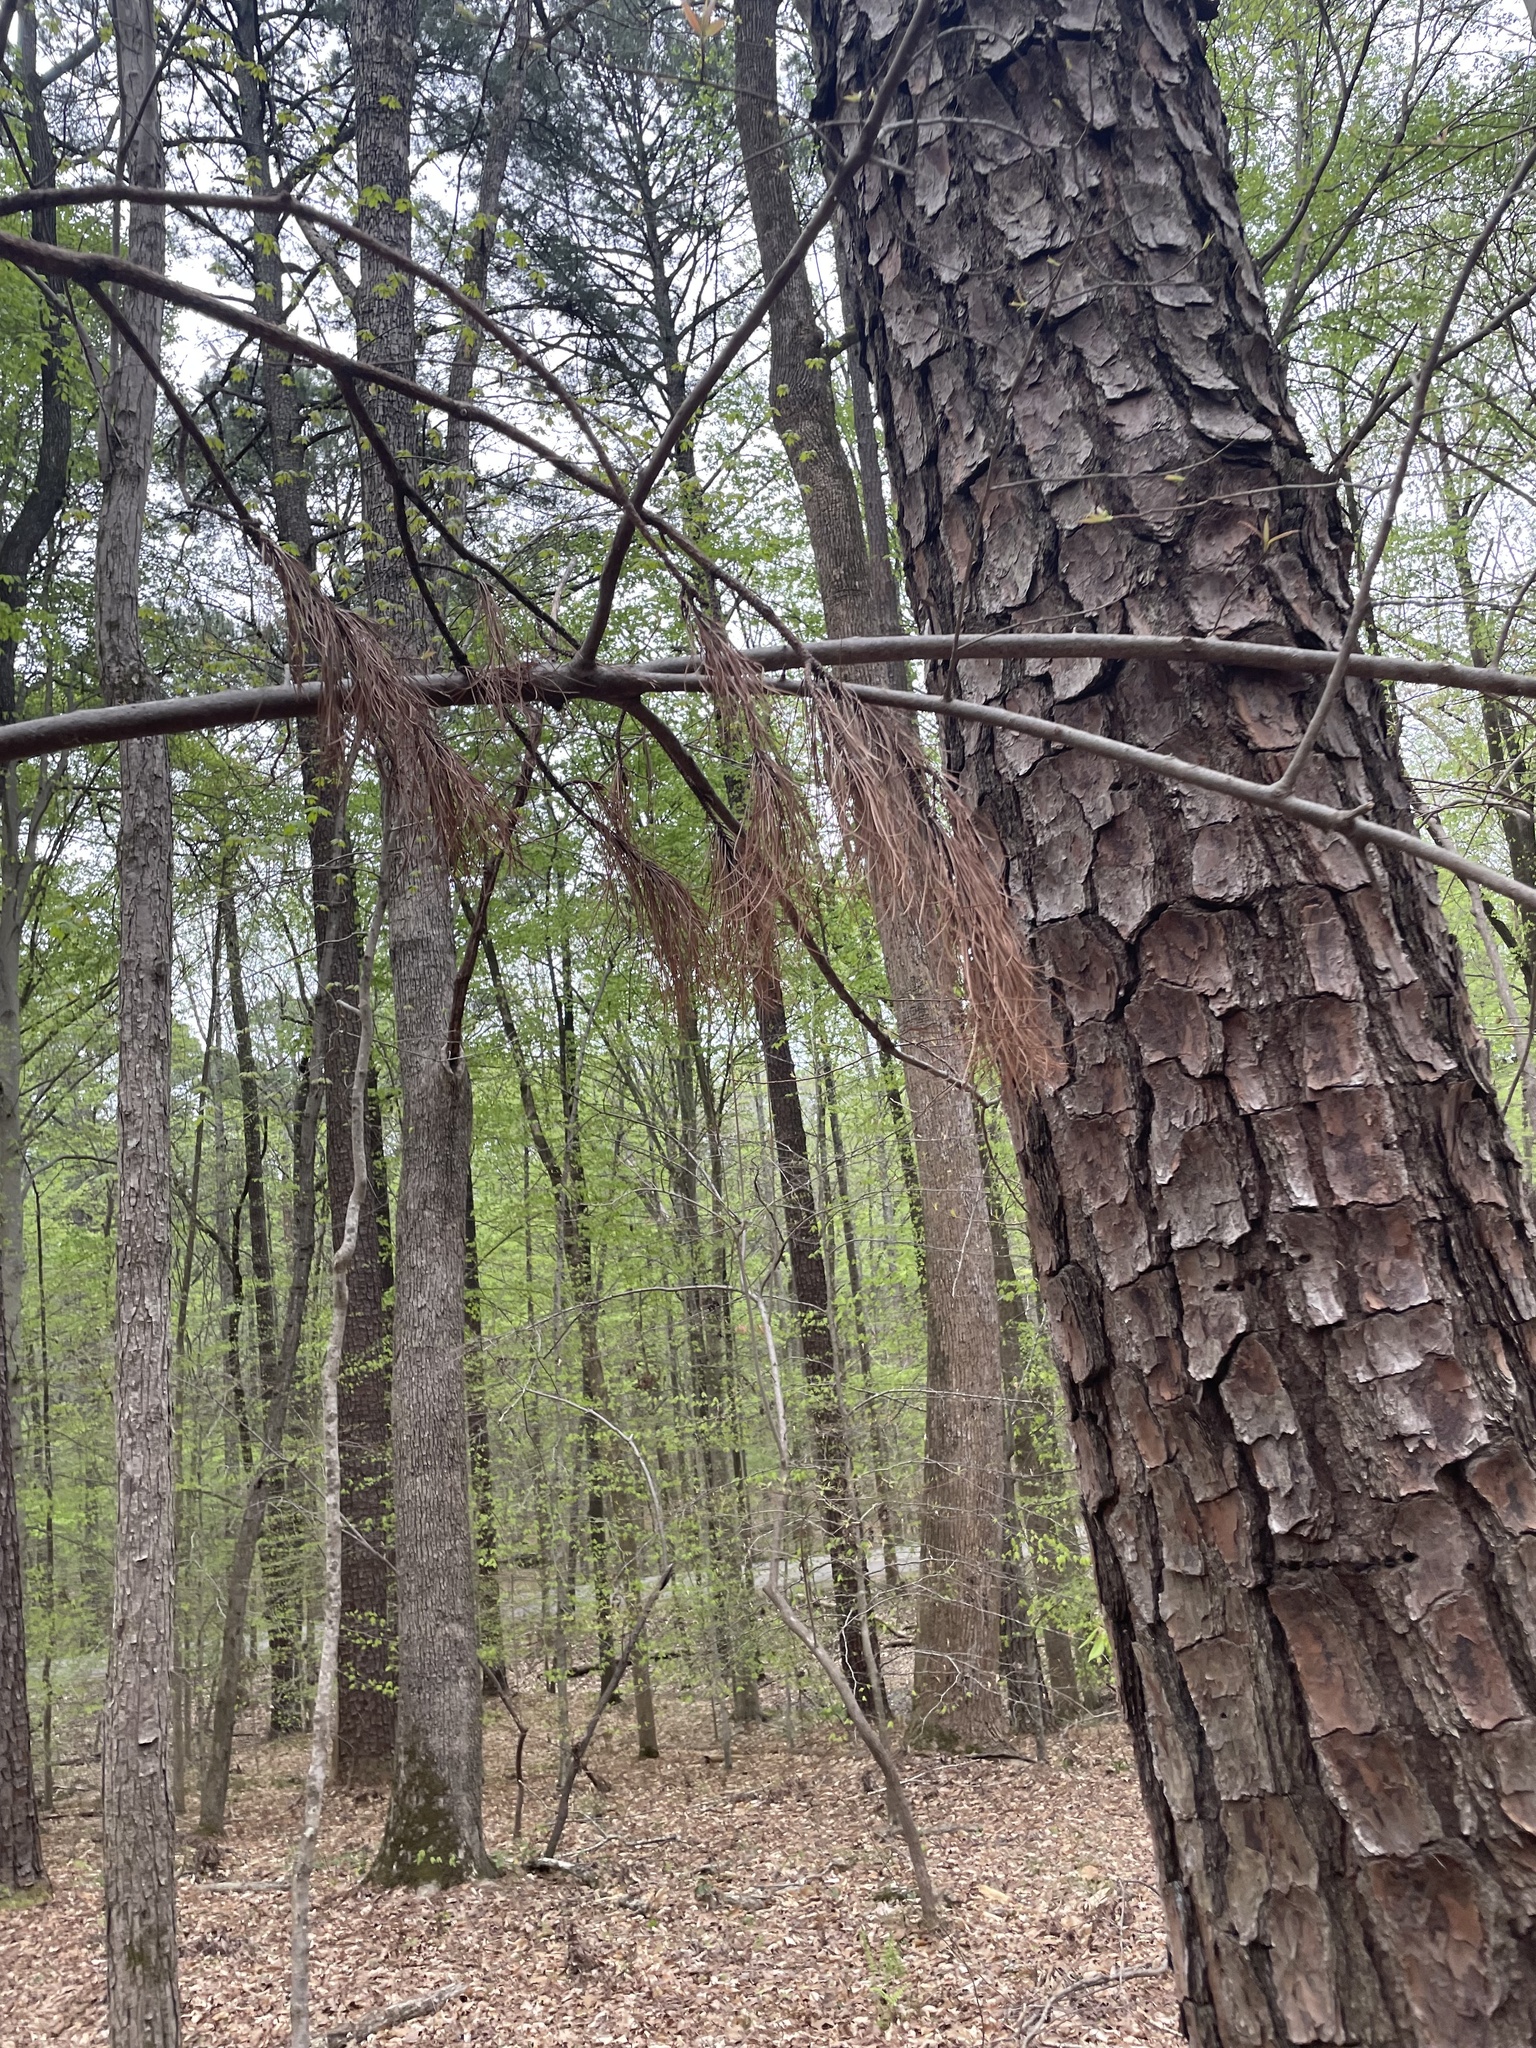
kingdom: Plantae
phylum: Tracheophyta
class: Pinopsida
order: Pinales
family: Pinaceae
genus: Pinus
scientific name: Pinus taeda
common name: Loblolly pine
